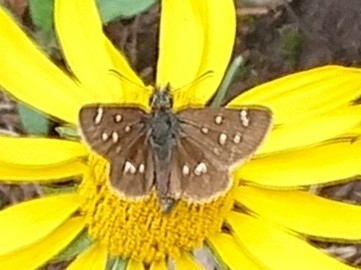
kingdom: Animalia
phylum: Arthropoda
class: Insecta
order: Lepidoptera
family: Hesperiidae
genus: Piruna
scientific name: Piruna polingii
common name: Four-spotted skipperling
